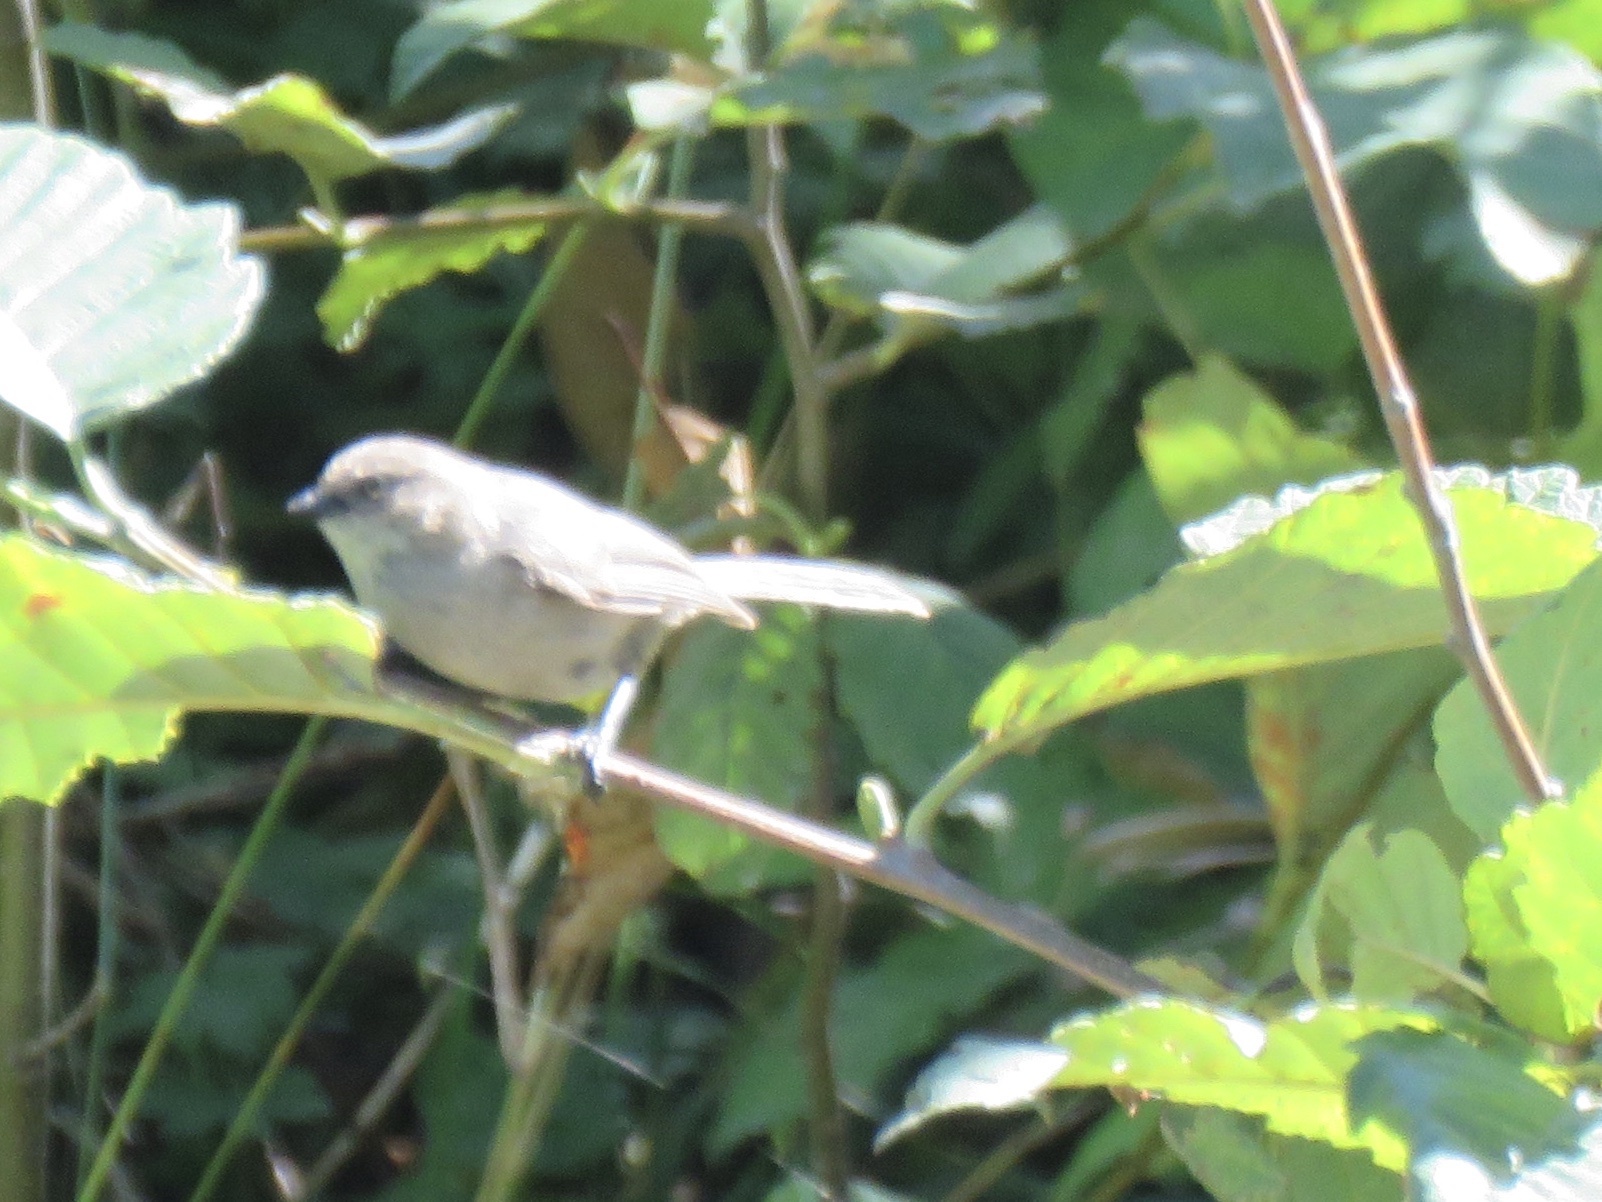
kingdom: Animalia
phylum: Chordata
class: Aves
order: Passeriformes
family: Aegithalidae
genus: Psaltriparus
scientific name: Psaltriparus minimus
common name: American bushtit
